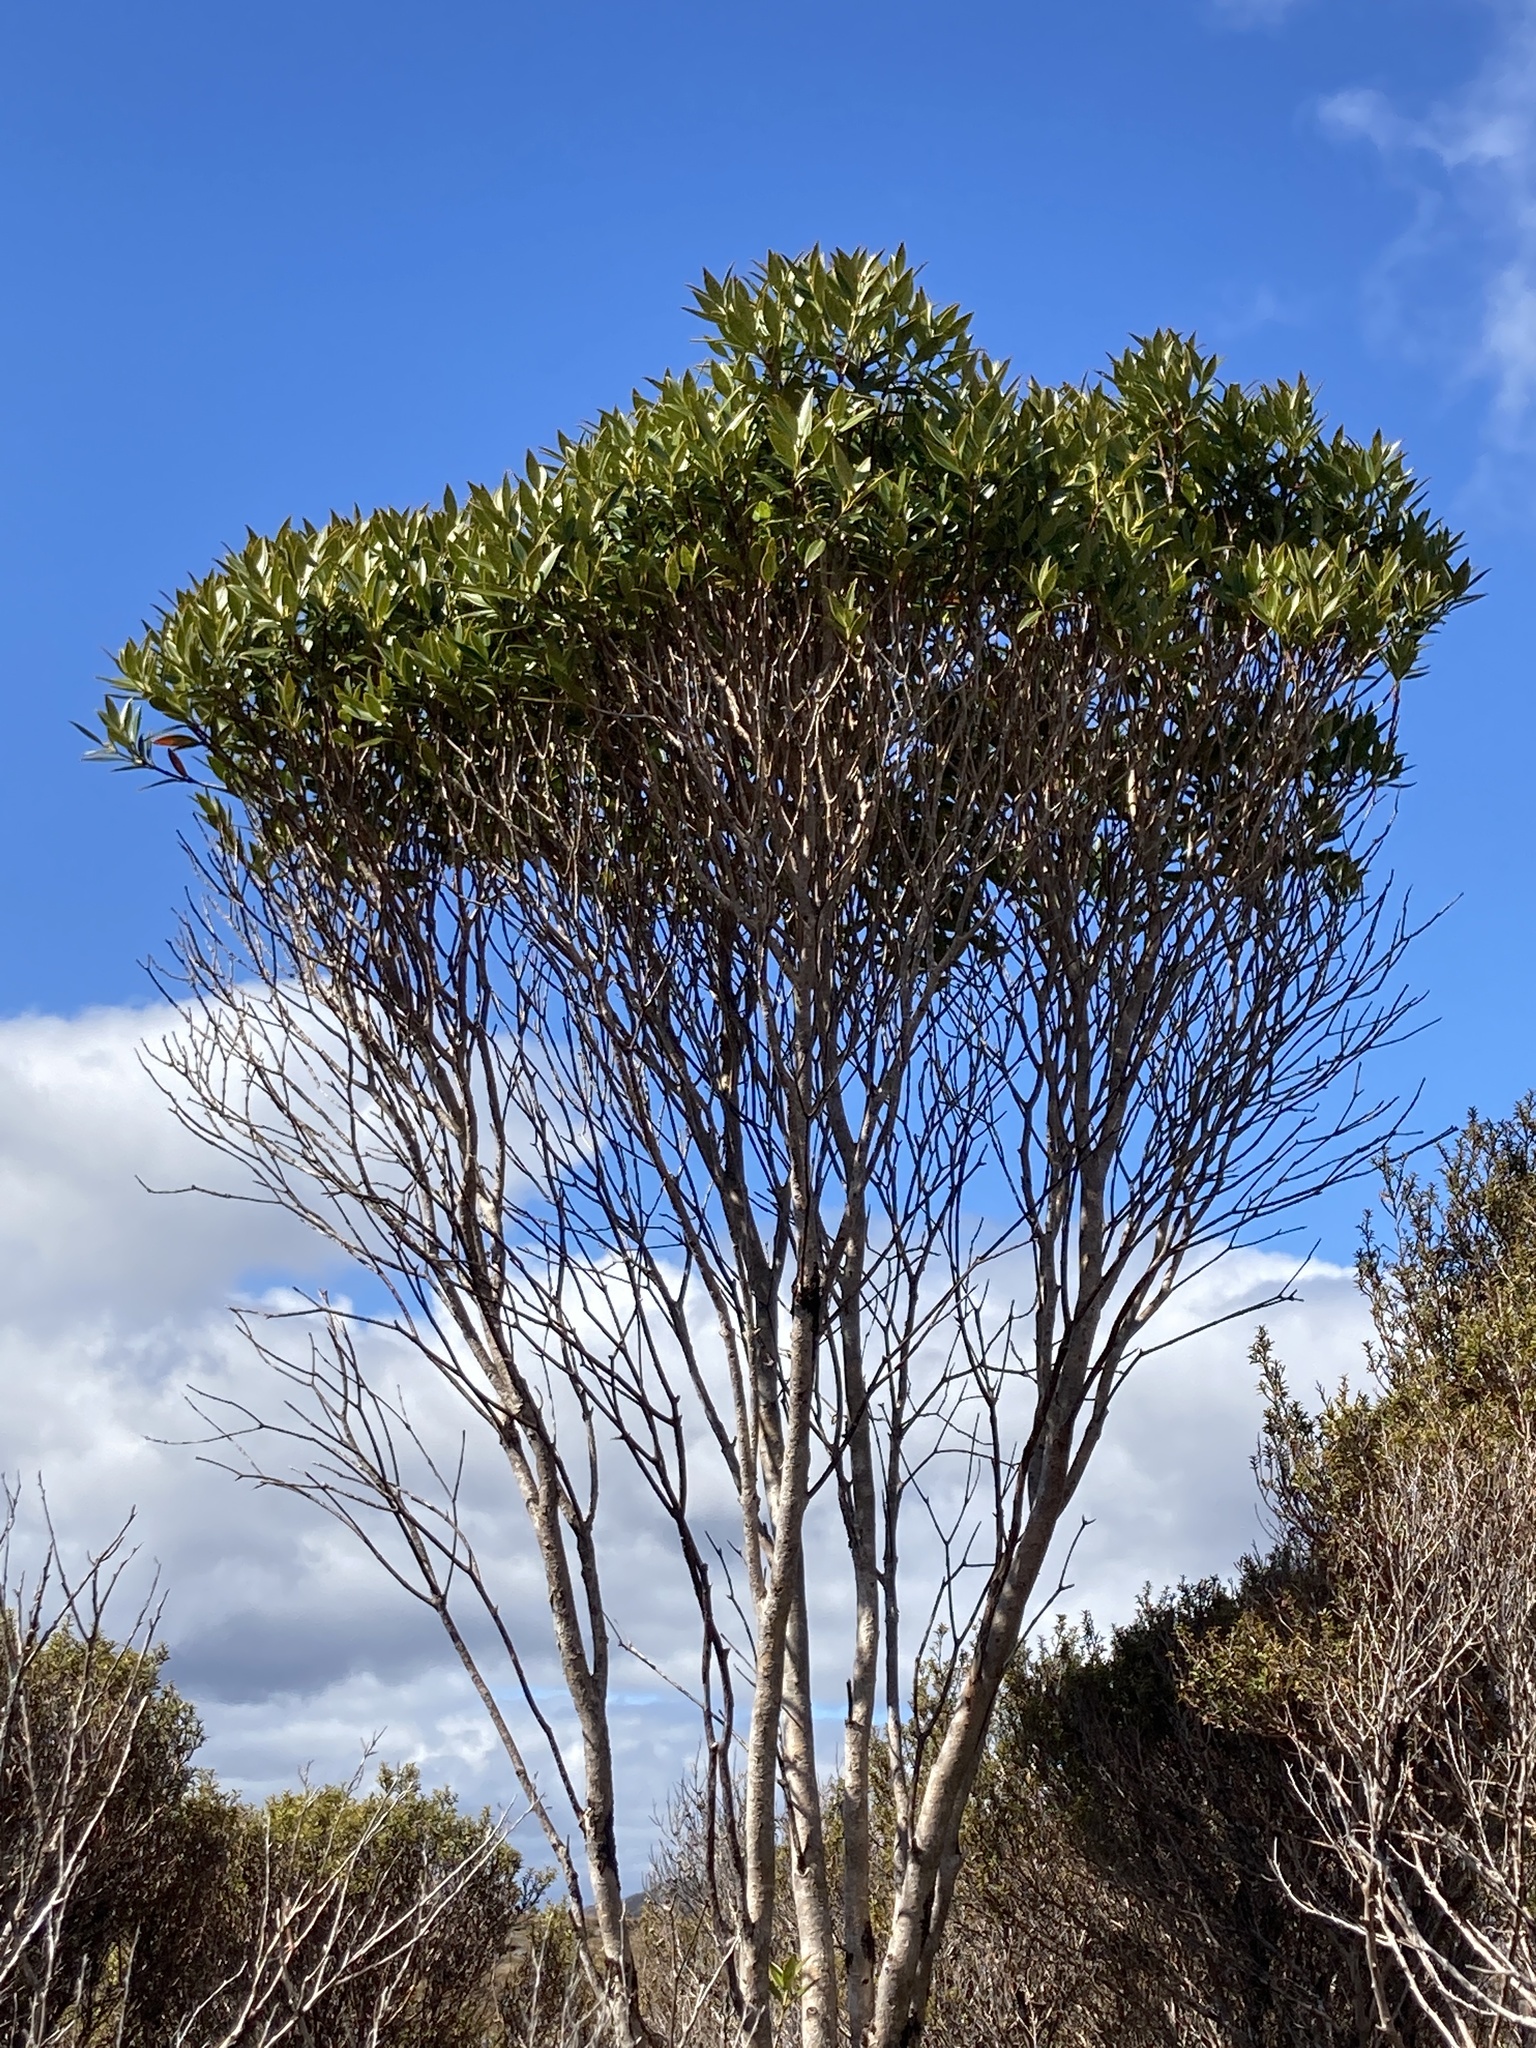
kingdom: Plantae
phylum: Tracheophyta
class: Magnoliopsida
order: Myrtales
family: Myrtaceae
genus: Metrosideros
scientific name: Metrosideros umbellata
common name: Southern rata
